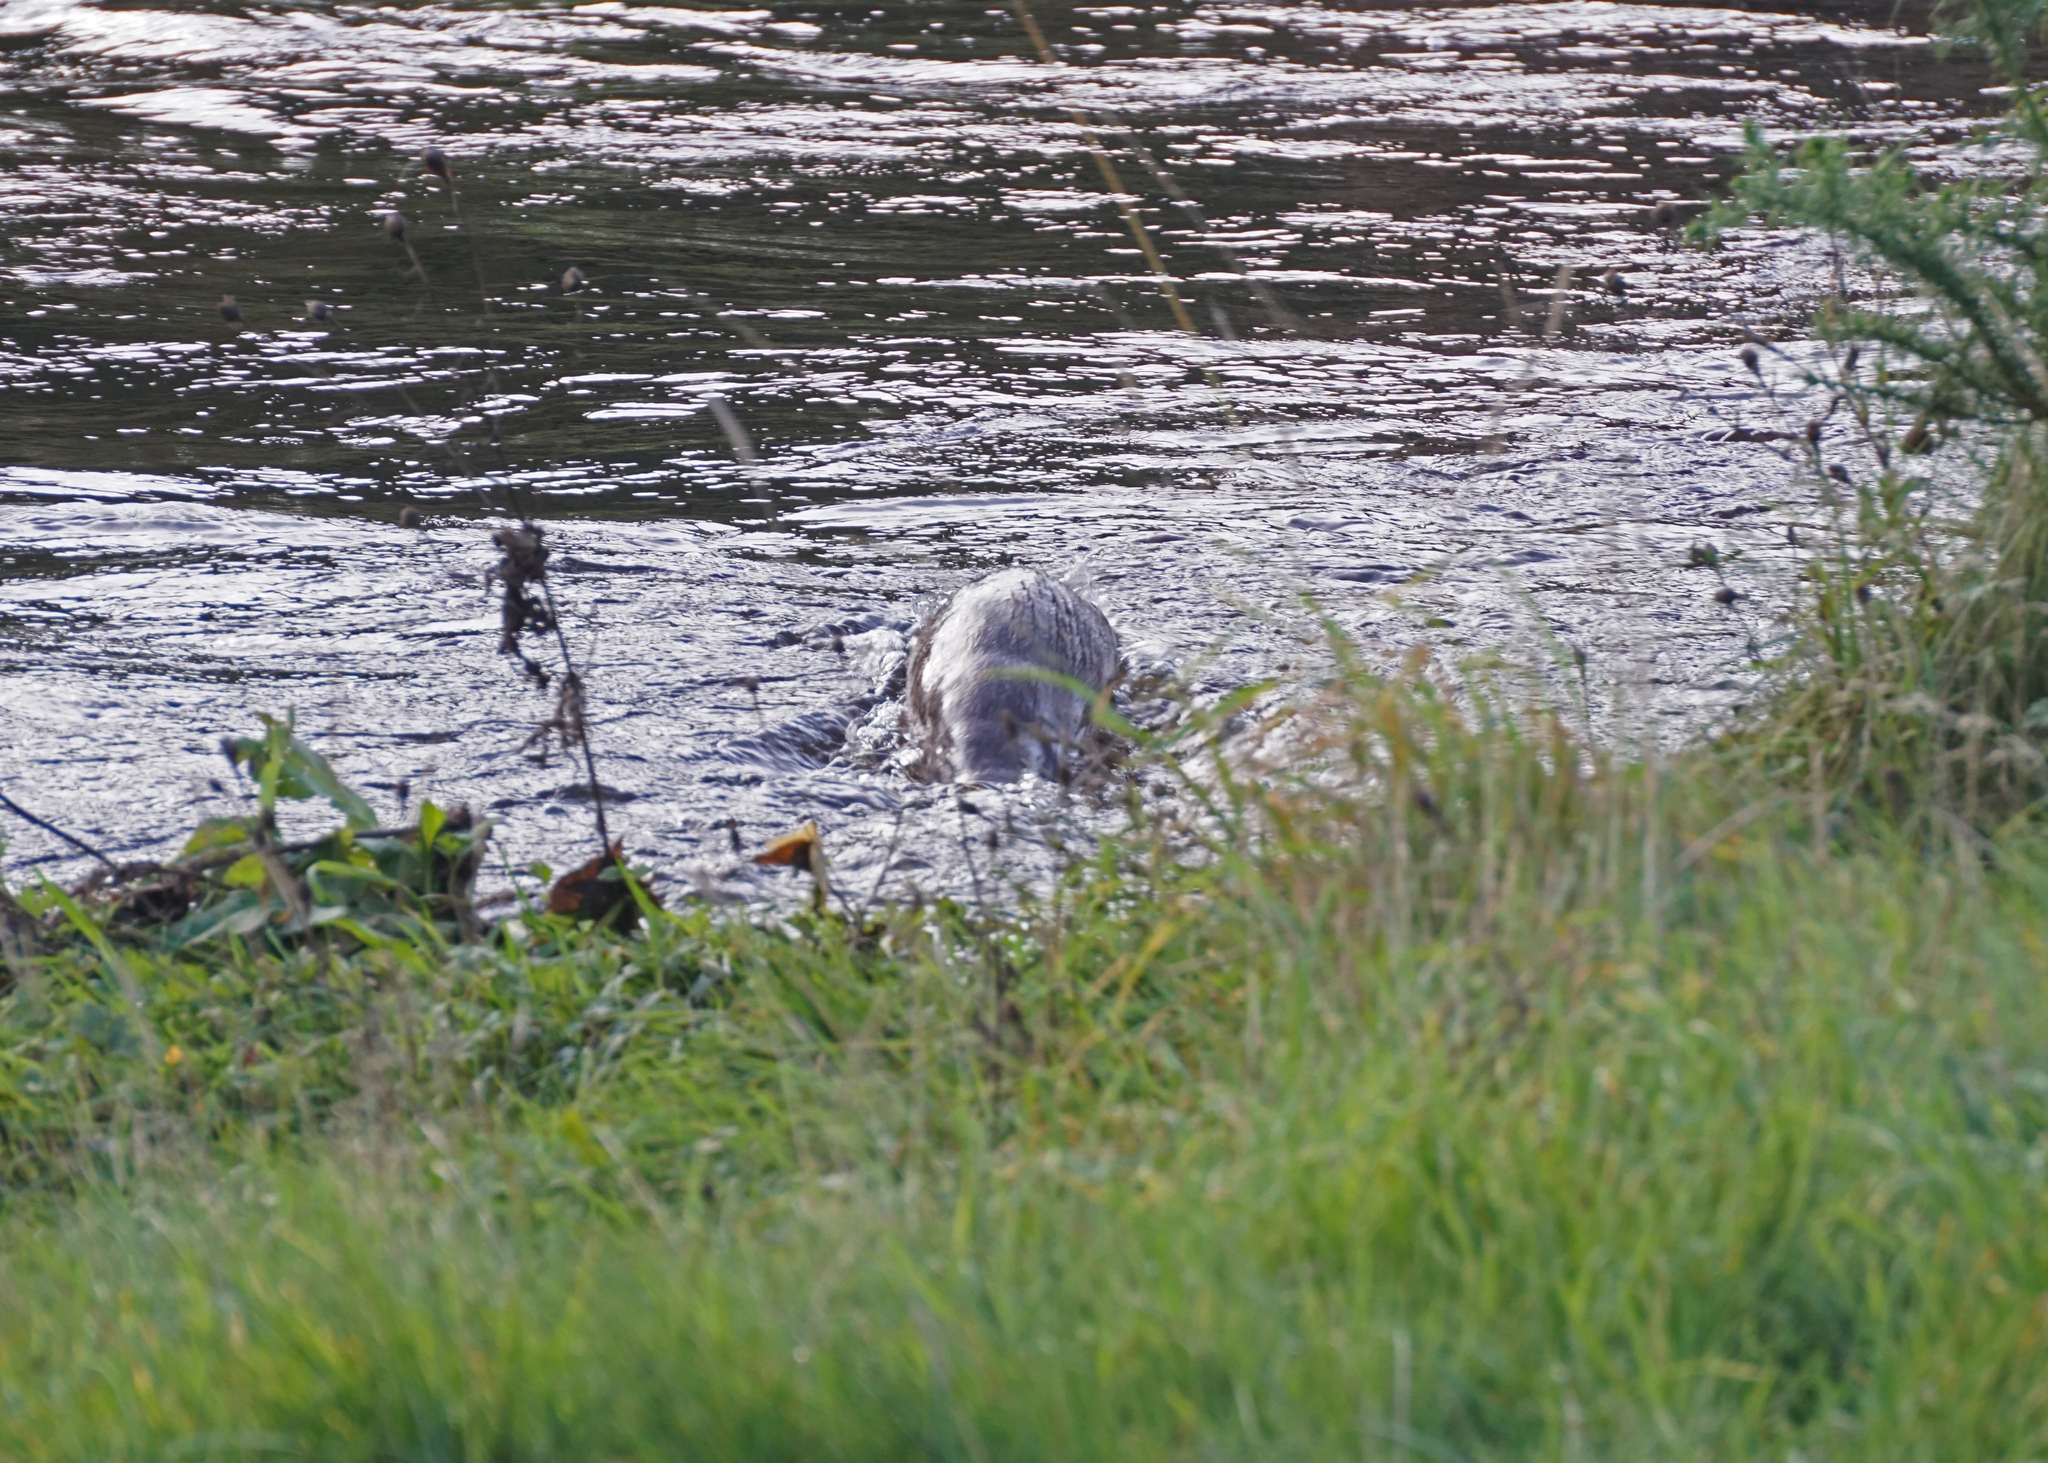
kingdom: Animalia
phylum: Chordata
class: Mammalia
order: Carnivora
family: Mustelidae
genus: Lutra
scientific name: Lutra lutra
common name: European otter
